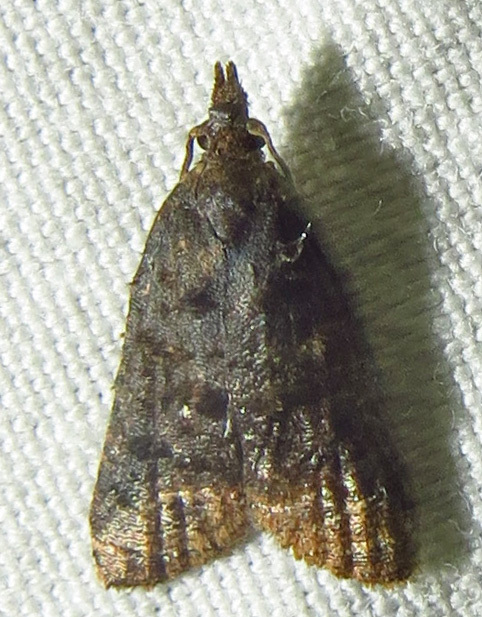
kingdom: Animalia
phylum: Arthropoda
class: Insecta
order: Lepidoptera
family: Tortricidae
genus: Platynota
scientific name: Platynota idaeusalis
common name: Tufted apple bud moth
